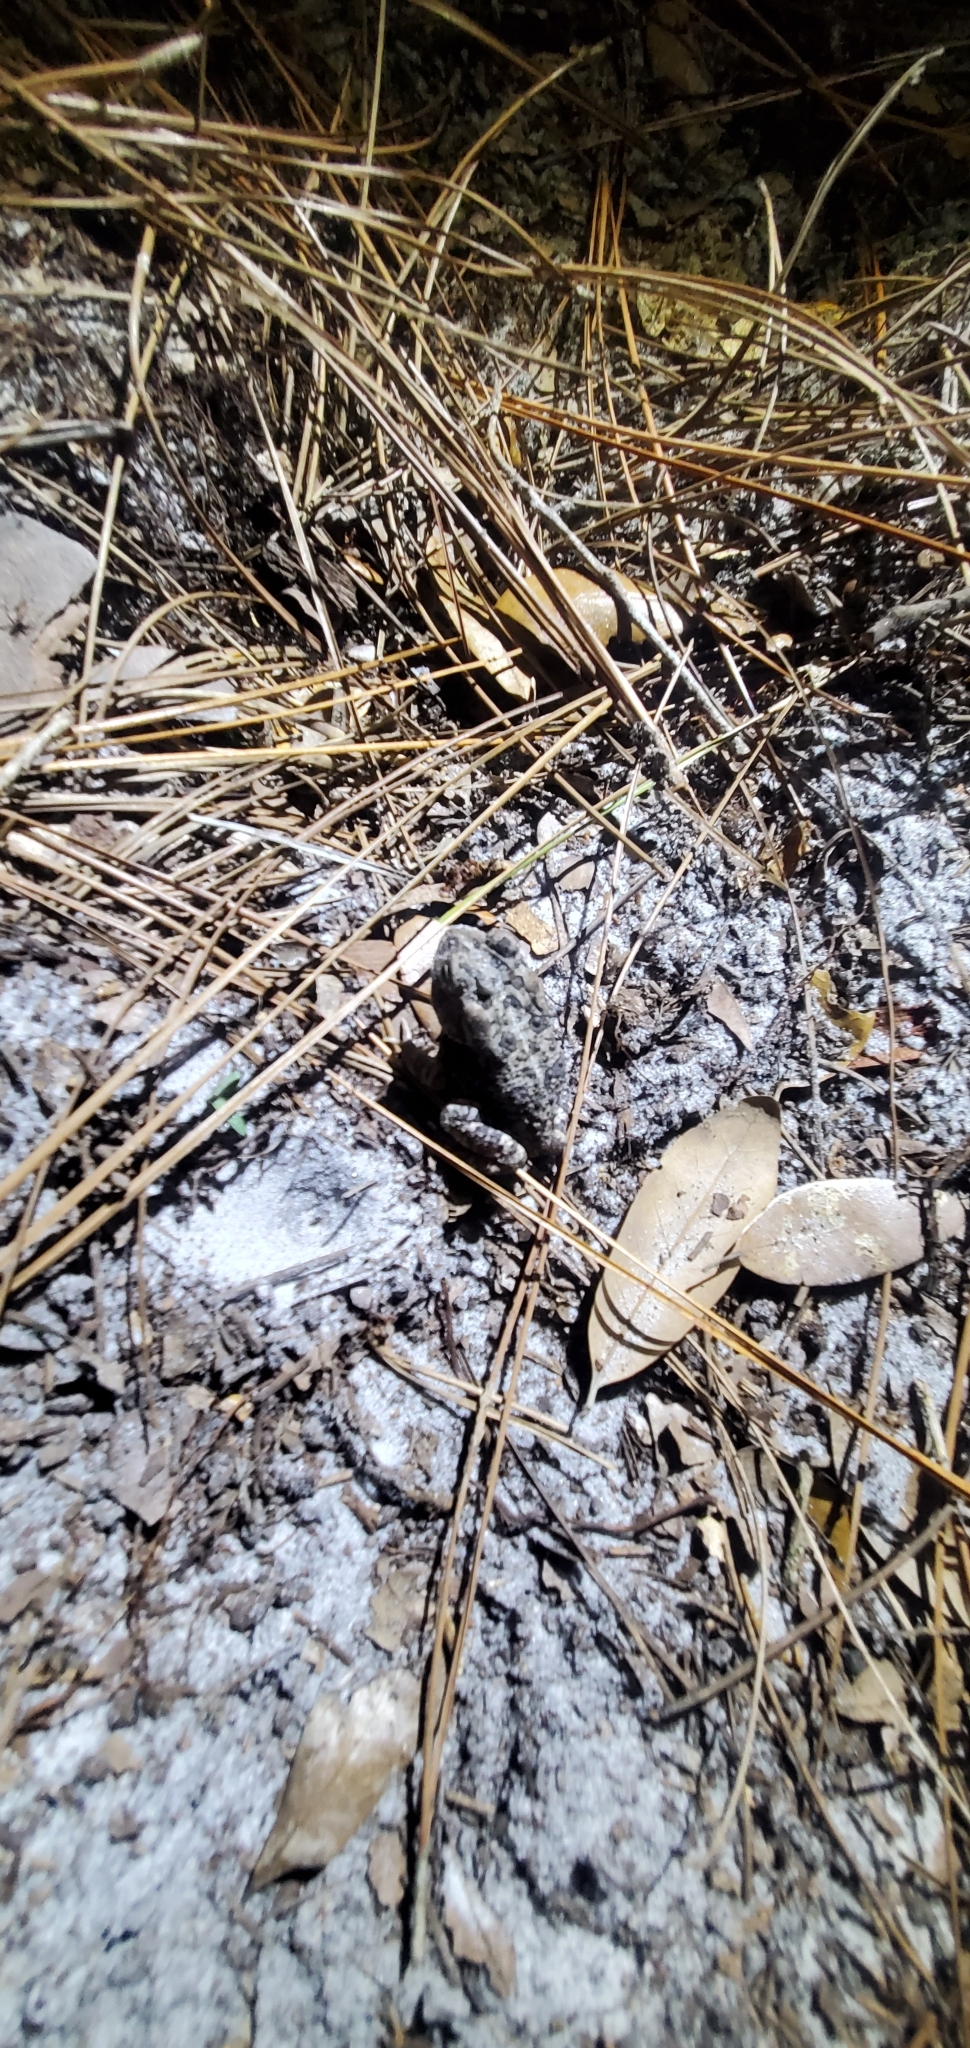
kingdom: Animalia
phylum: Chordata
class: Amphibia
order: Anura
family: Bufonidae
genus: Anaxyrus
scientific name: Anaxyrus terrestris
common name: Southern toad
